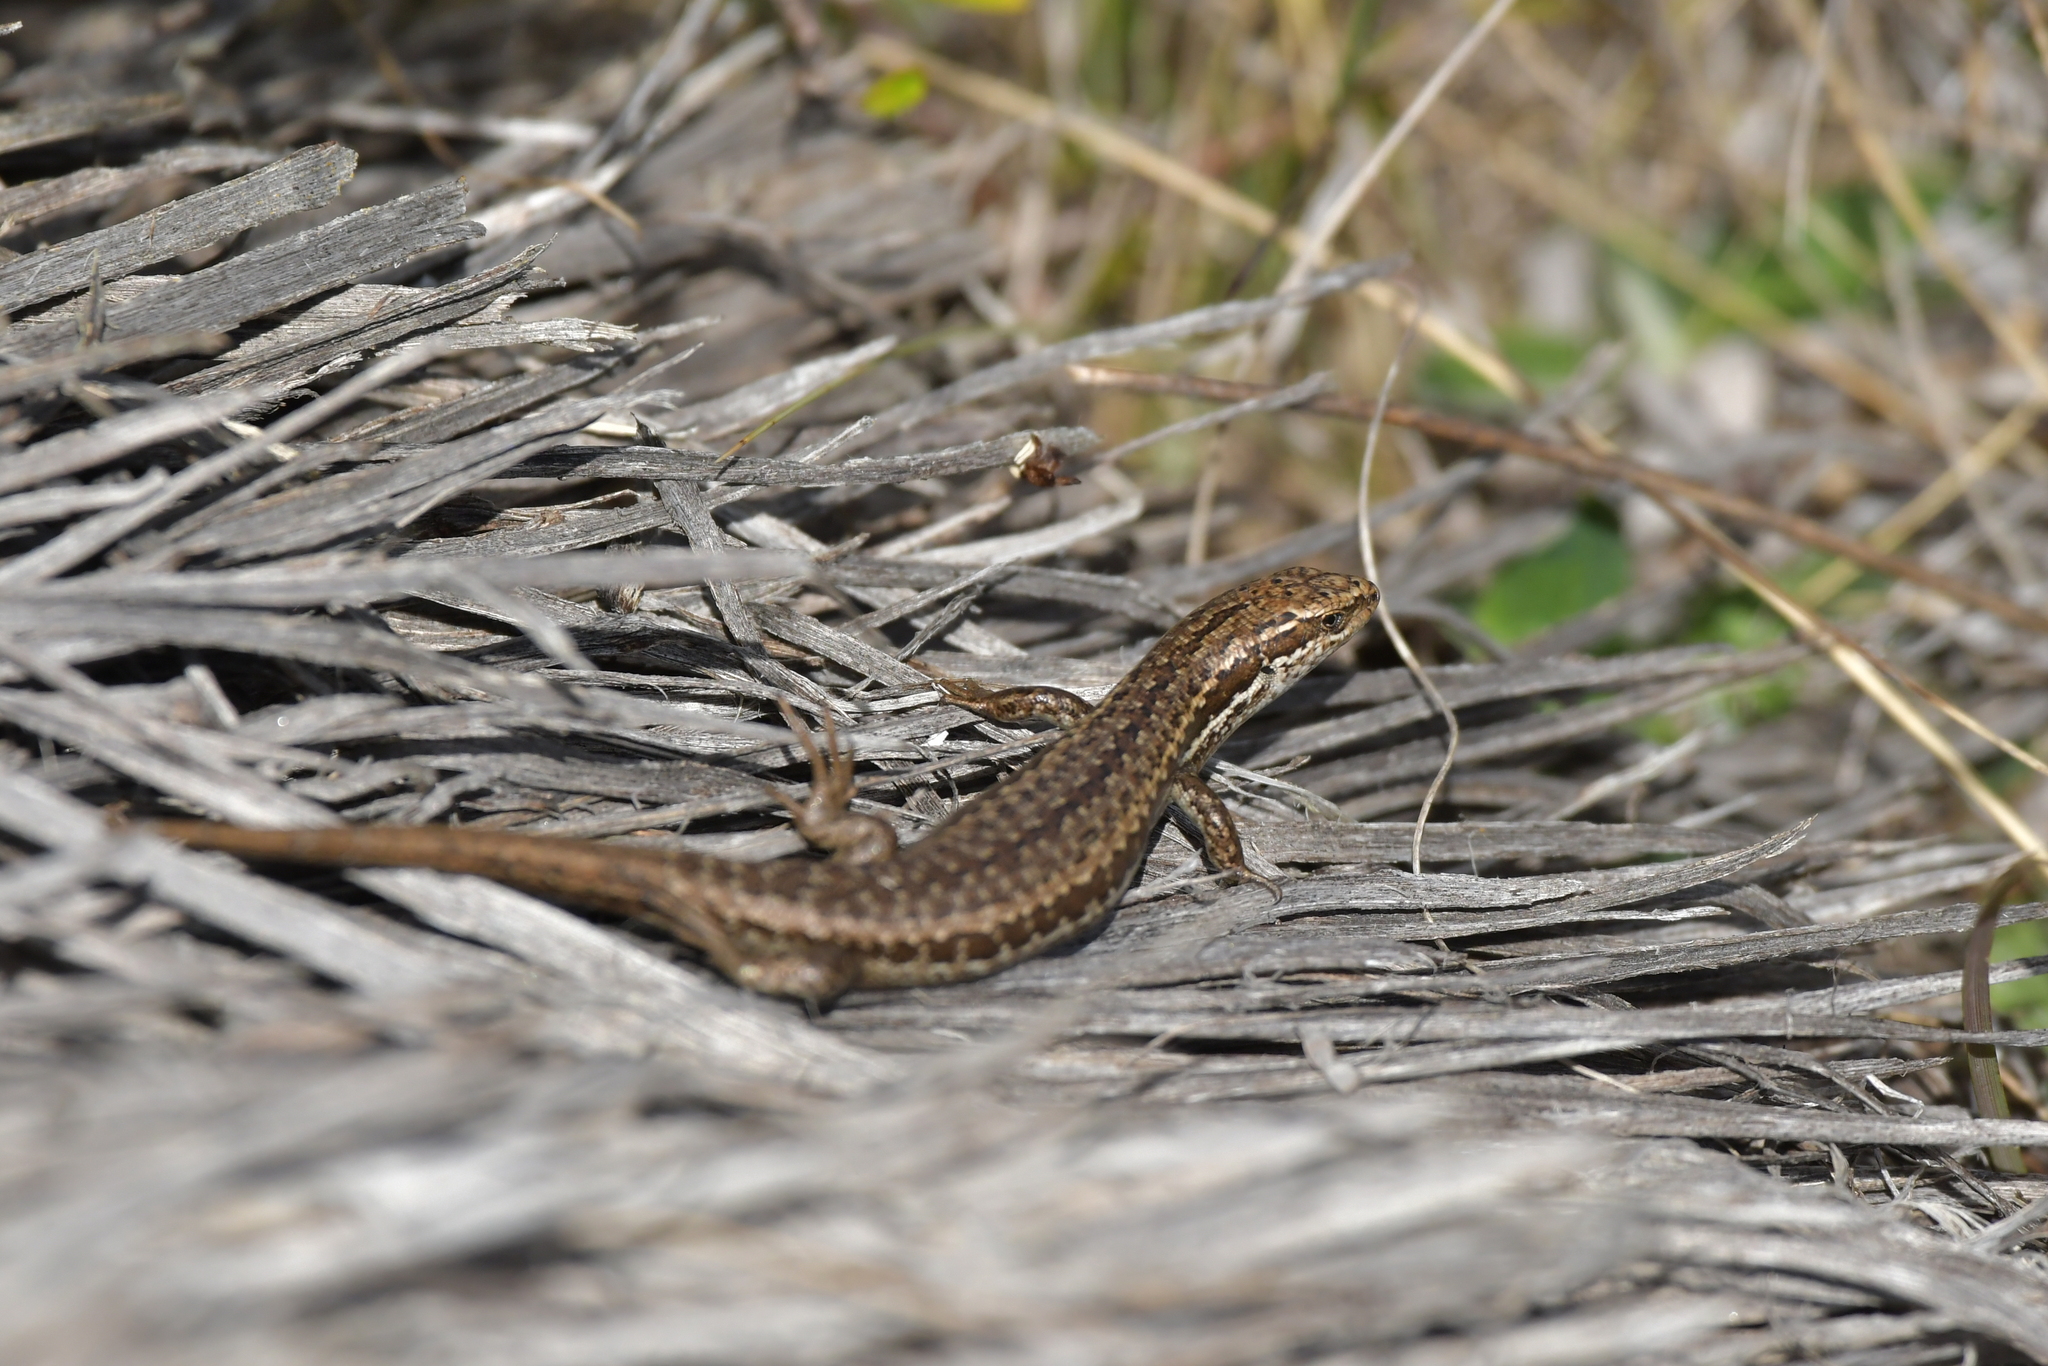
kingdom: Animalia
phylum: Chordata
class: Squamata
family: Scincidae
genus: Oligosoma
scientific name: Oligosoma maccanni
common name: Mccann’s skink
